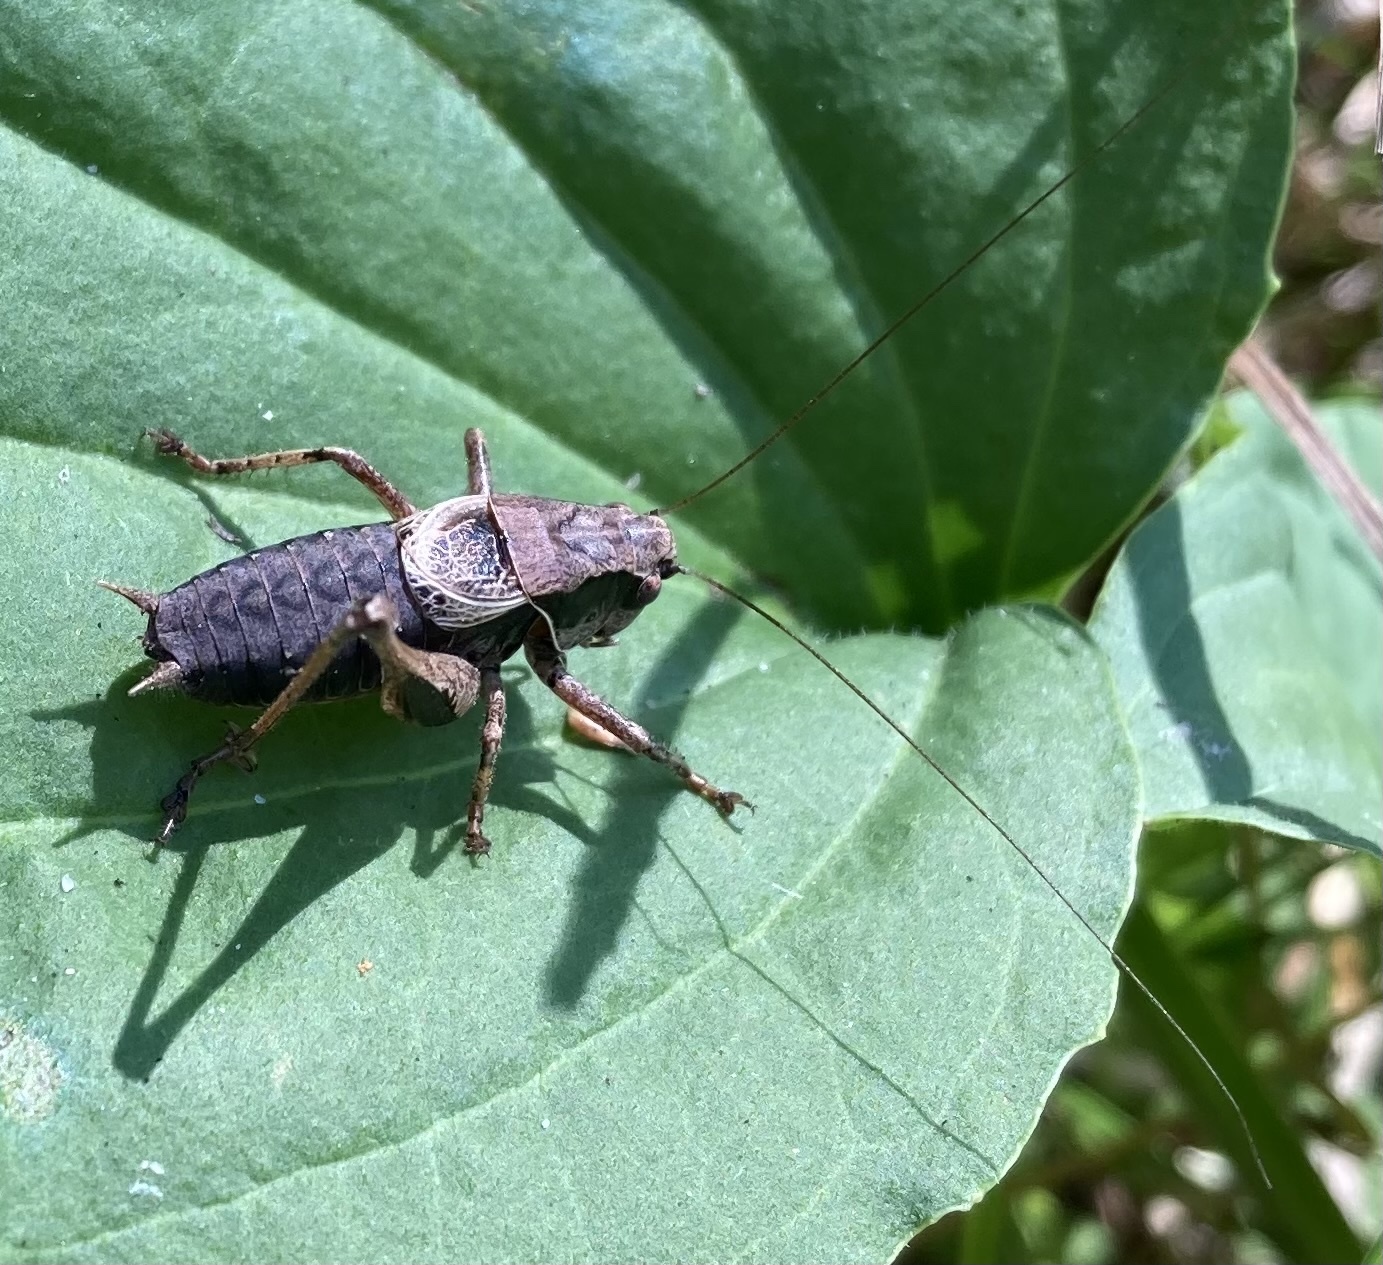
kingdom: Animalia
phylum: Arthropoda
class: Insecta
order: Orthoptera
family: Tettigoniidae
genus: Pholidoptera
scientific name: Pholidoptera griseoaptera
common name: Dark bush-cricket
